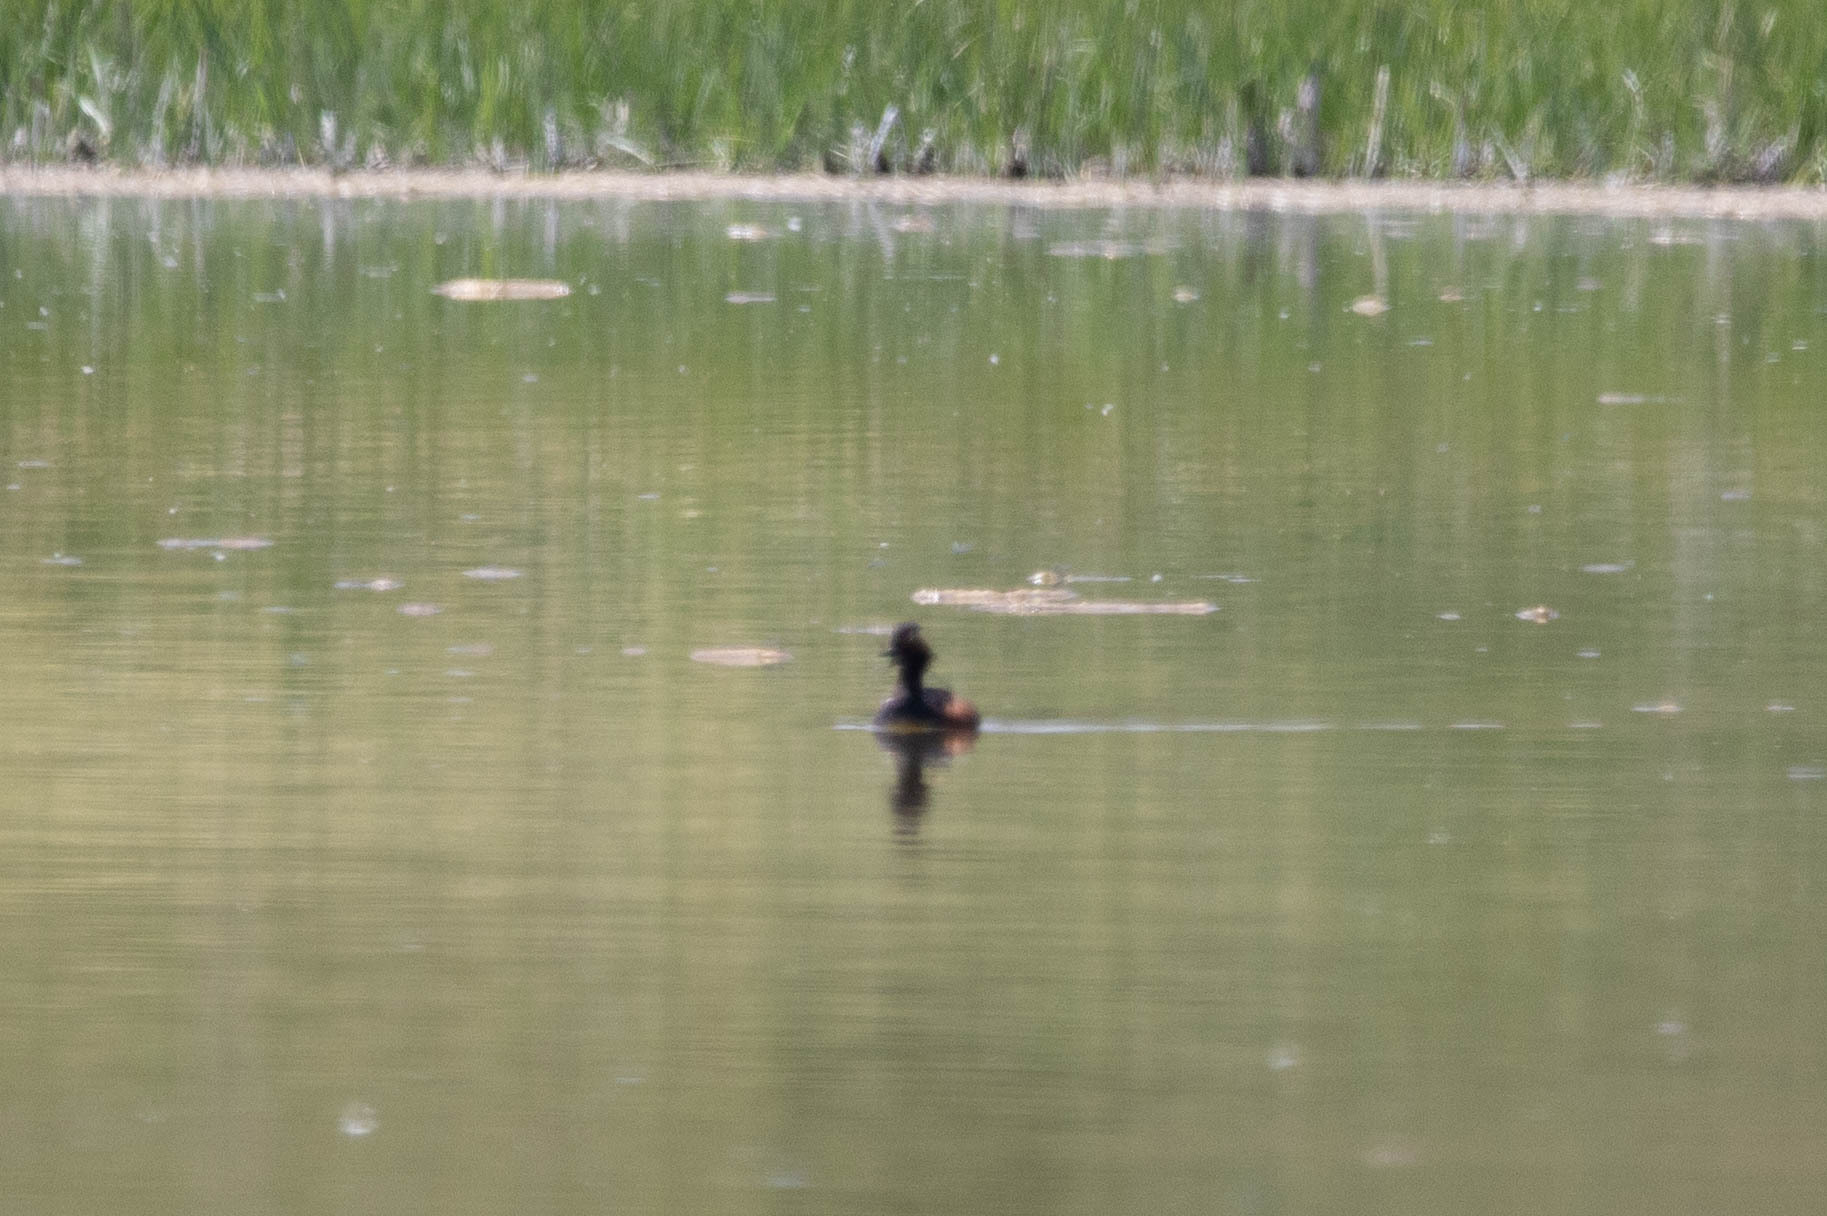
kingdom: Animalia
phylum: Chordata
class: Aves
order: Podicipediformes
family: Podicipedidae
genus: Podiceps
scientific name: Podiceps nigricollis
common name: Black-necked grebe
